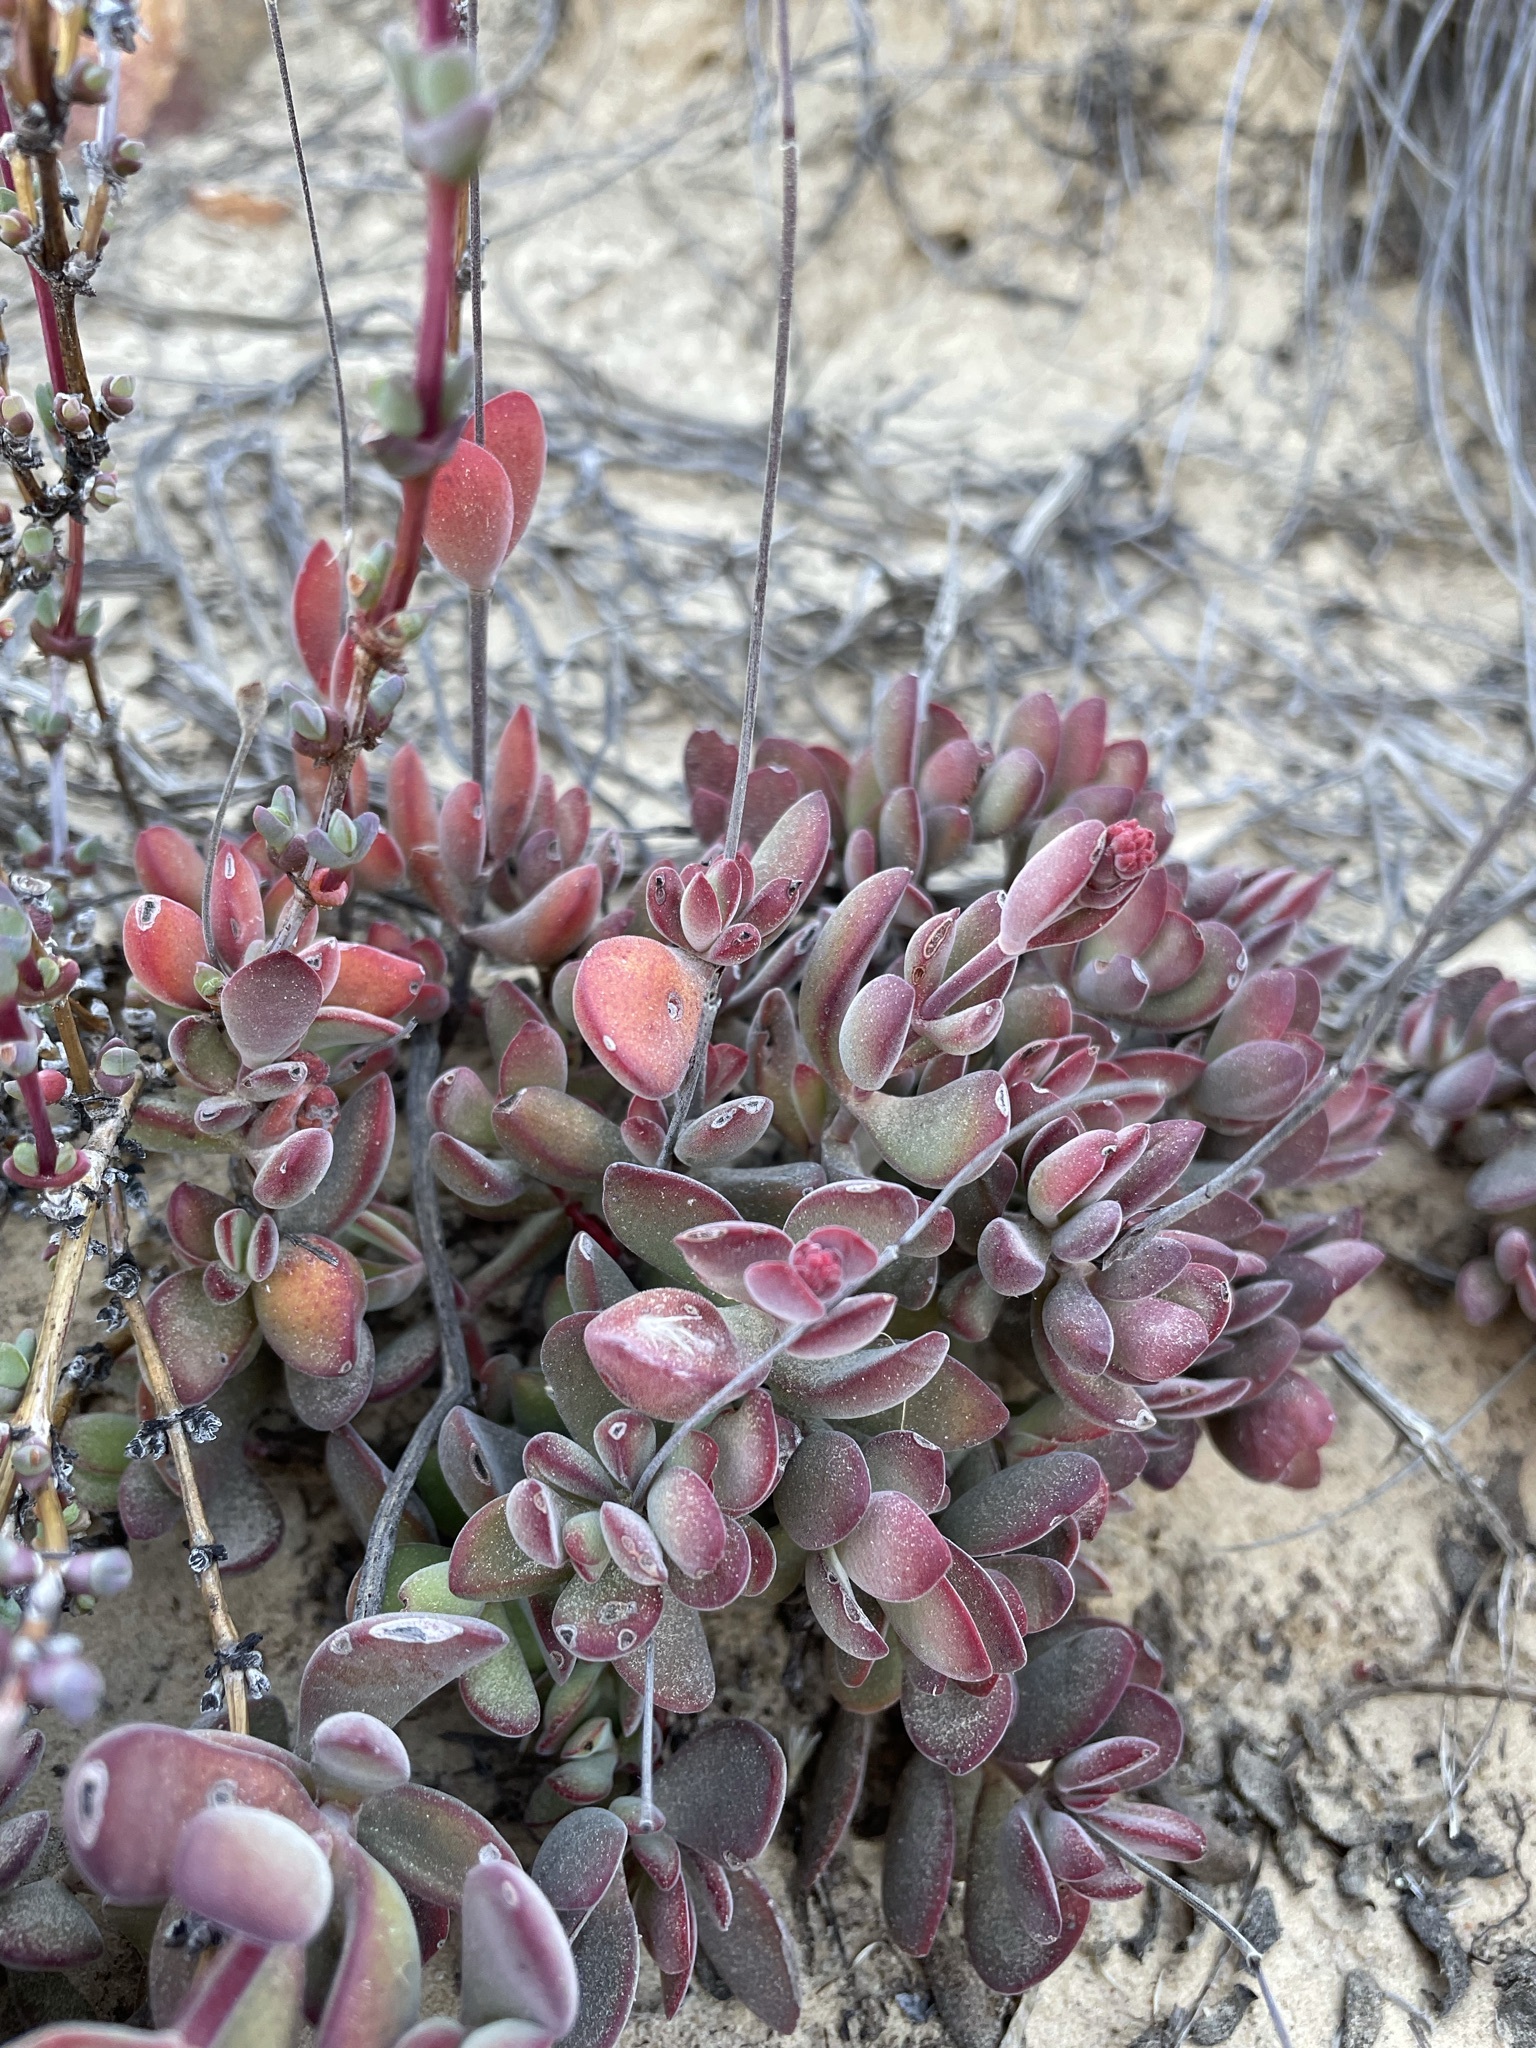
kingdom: Plantae
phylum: Tracheophyta
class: Magnoliopsida
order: Saxifragales
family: Crassulaceae
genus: Crassula
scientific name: Crassula atropurpurea
